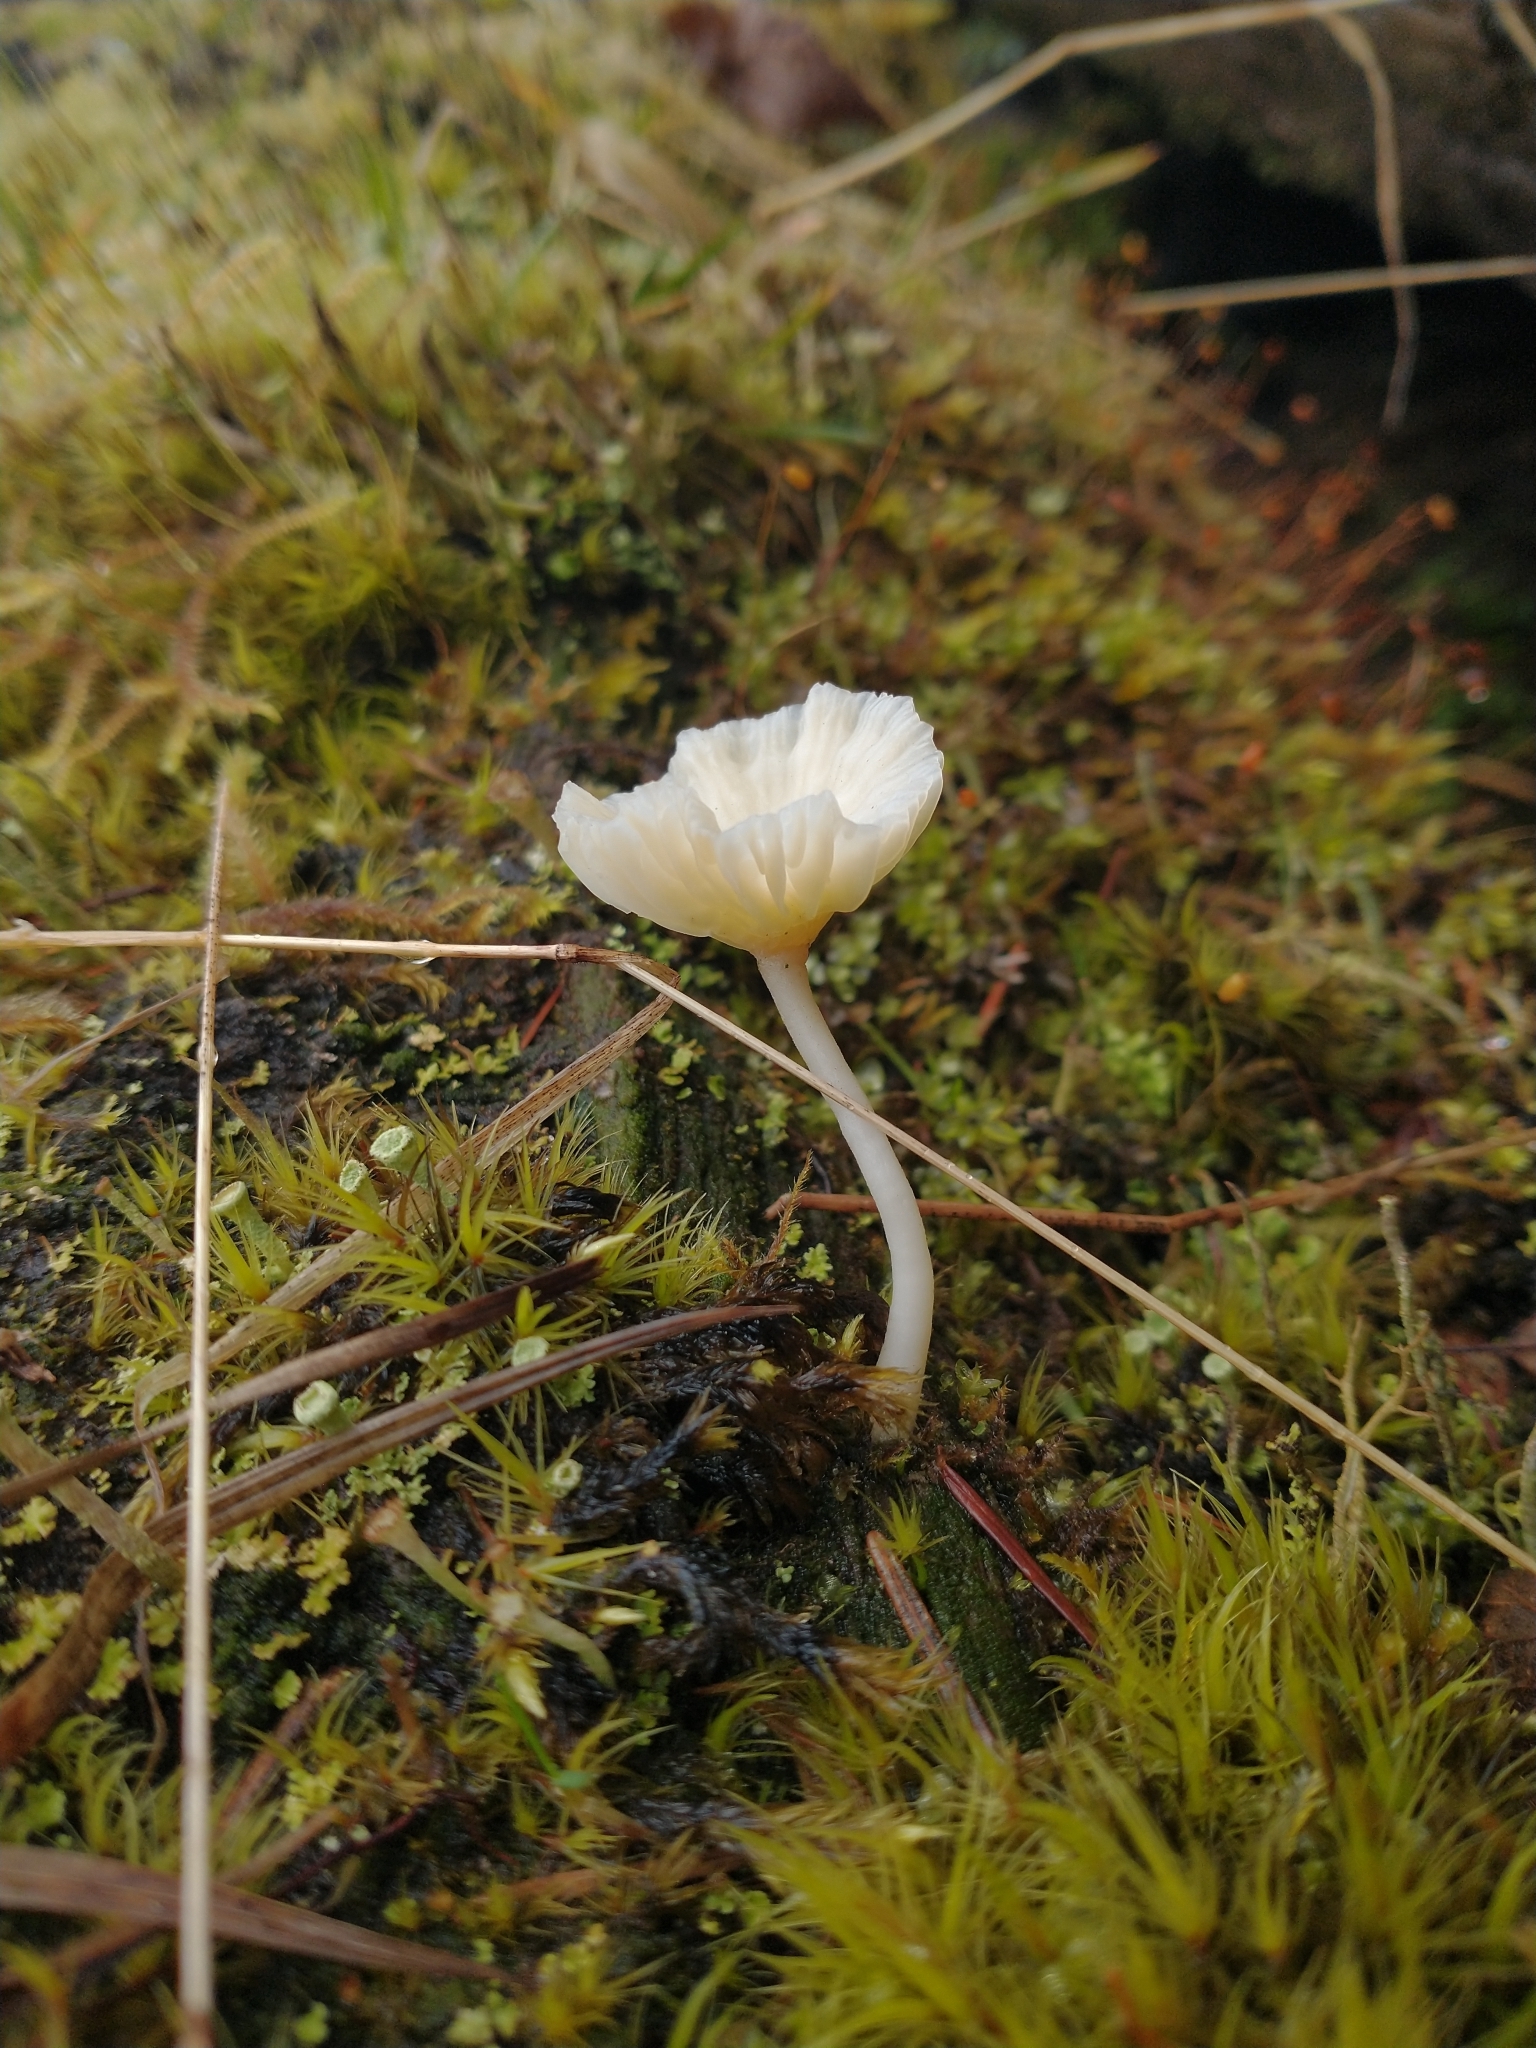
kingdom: Fungi
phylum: Basidiomycota
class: Agaricomycetes
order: Agaricales
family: Hygrophoraceae
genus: Lichenomphalia
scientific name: Lichenomphalia
